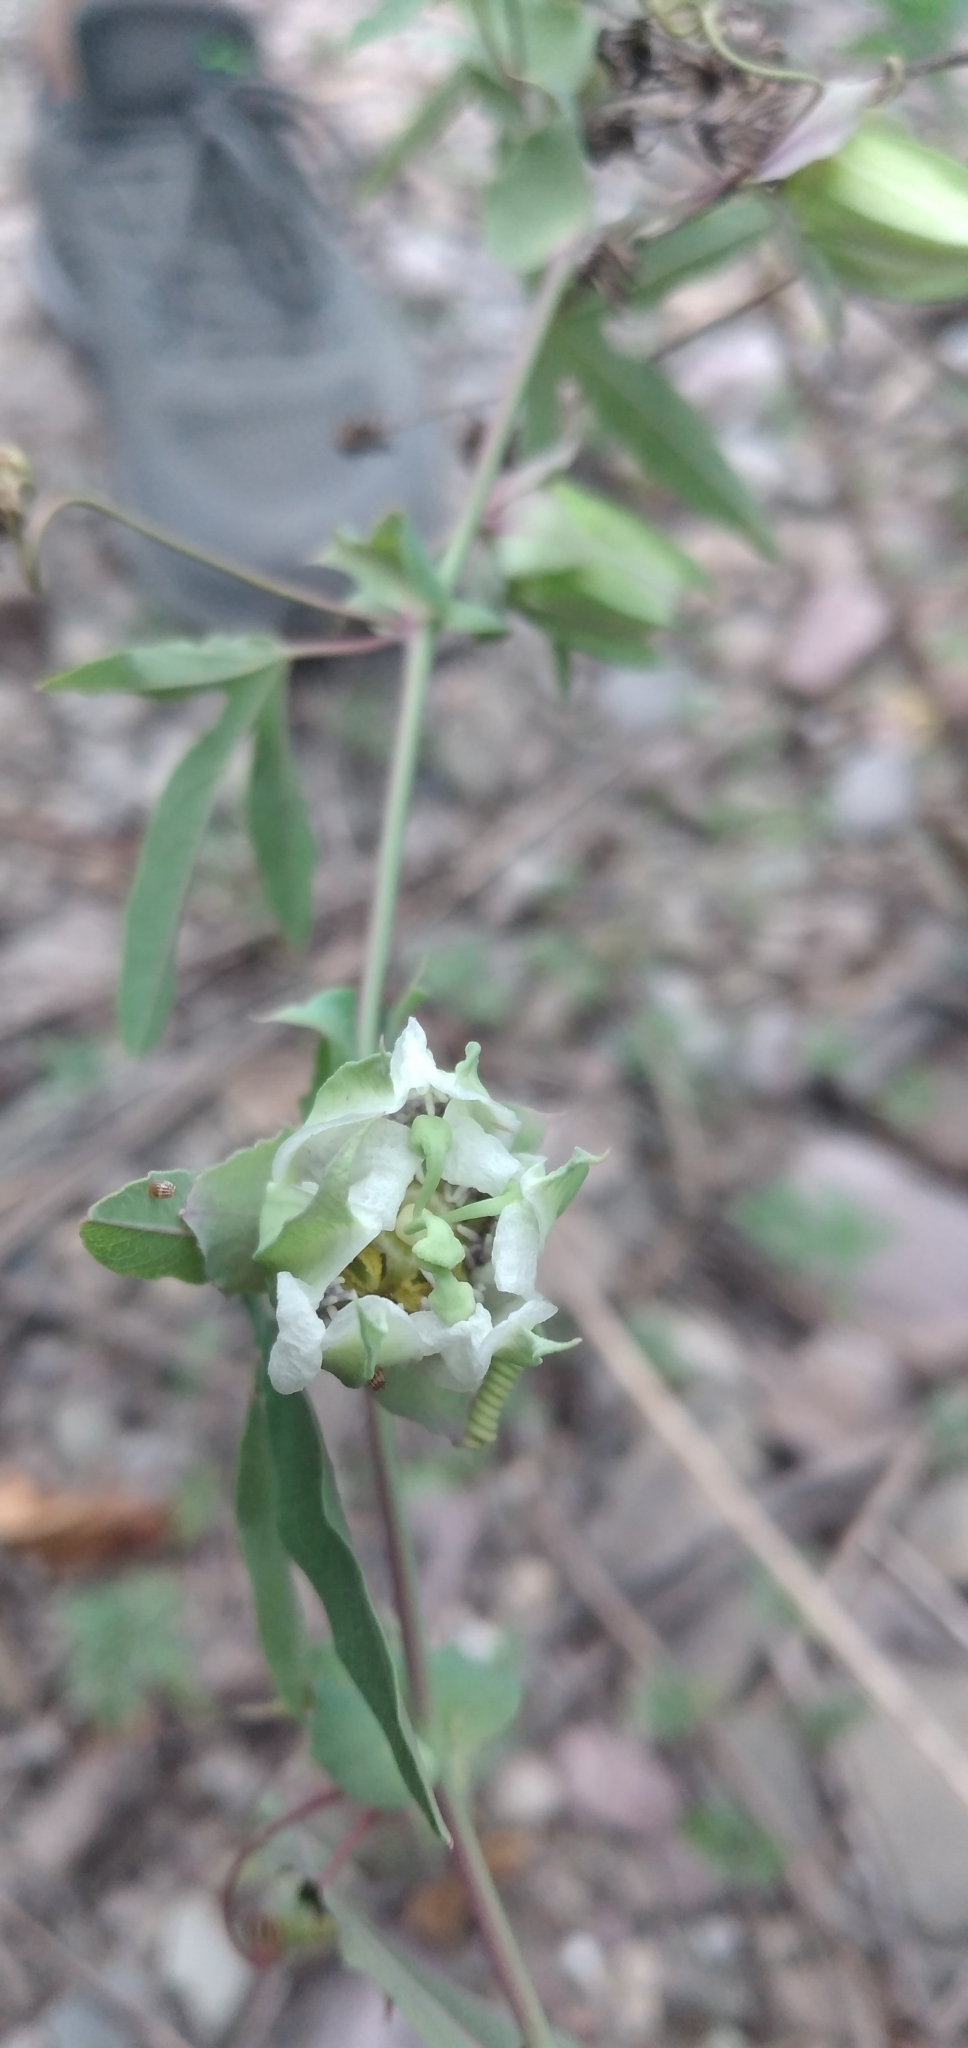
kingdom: Plantae
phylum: Tracheophyta
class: Magnoliopsida
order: Malpighiales
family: Passifloraceae
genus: Passiflora
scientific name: Passiflora tucumanensis
